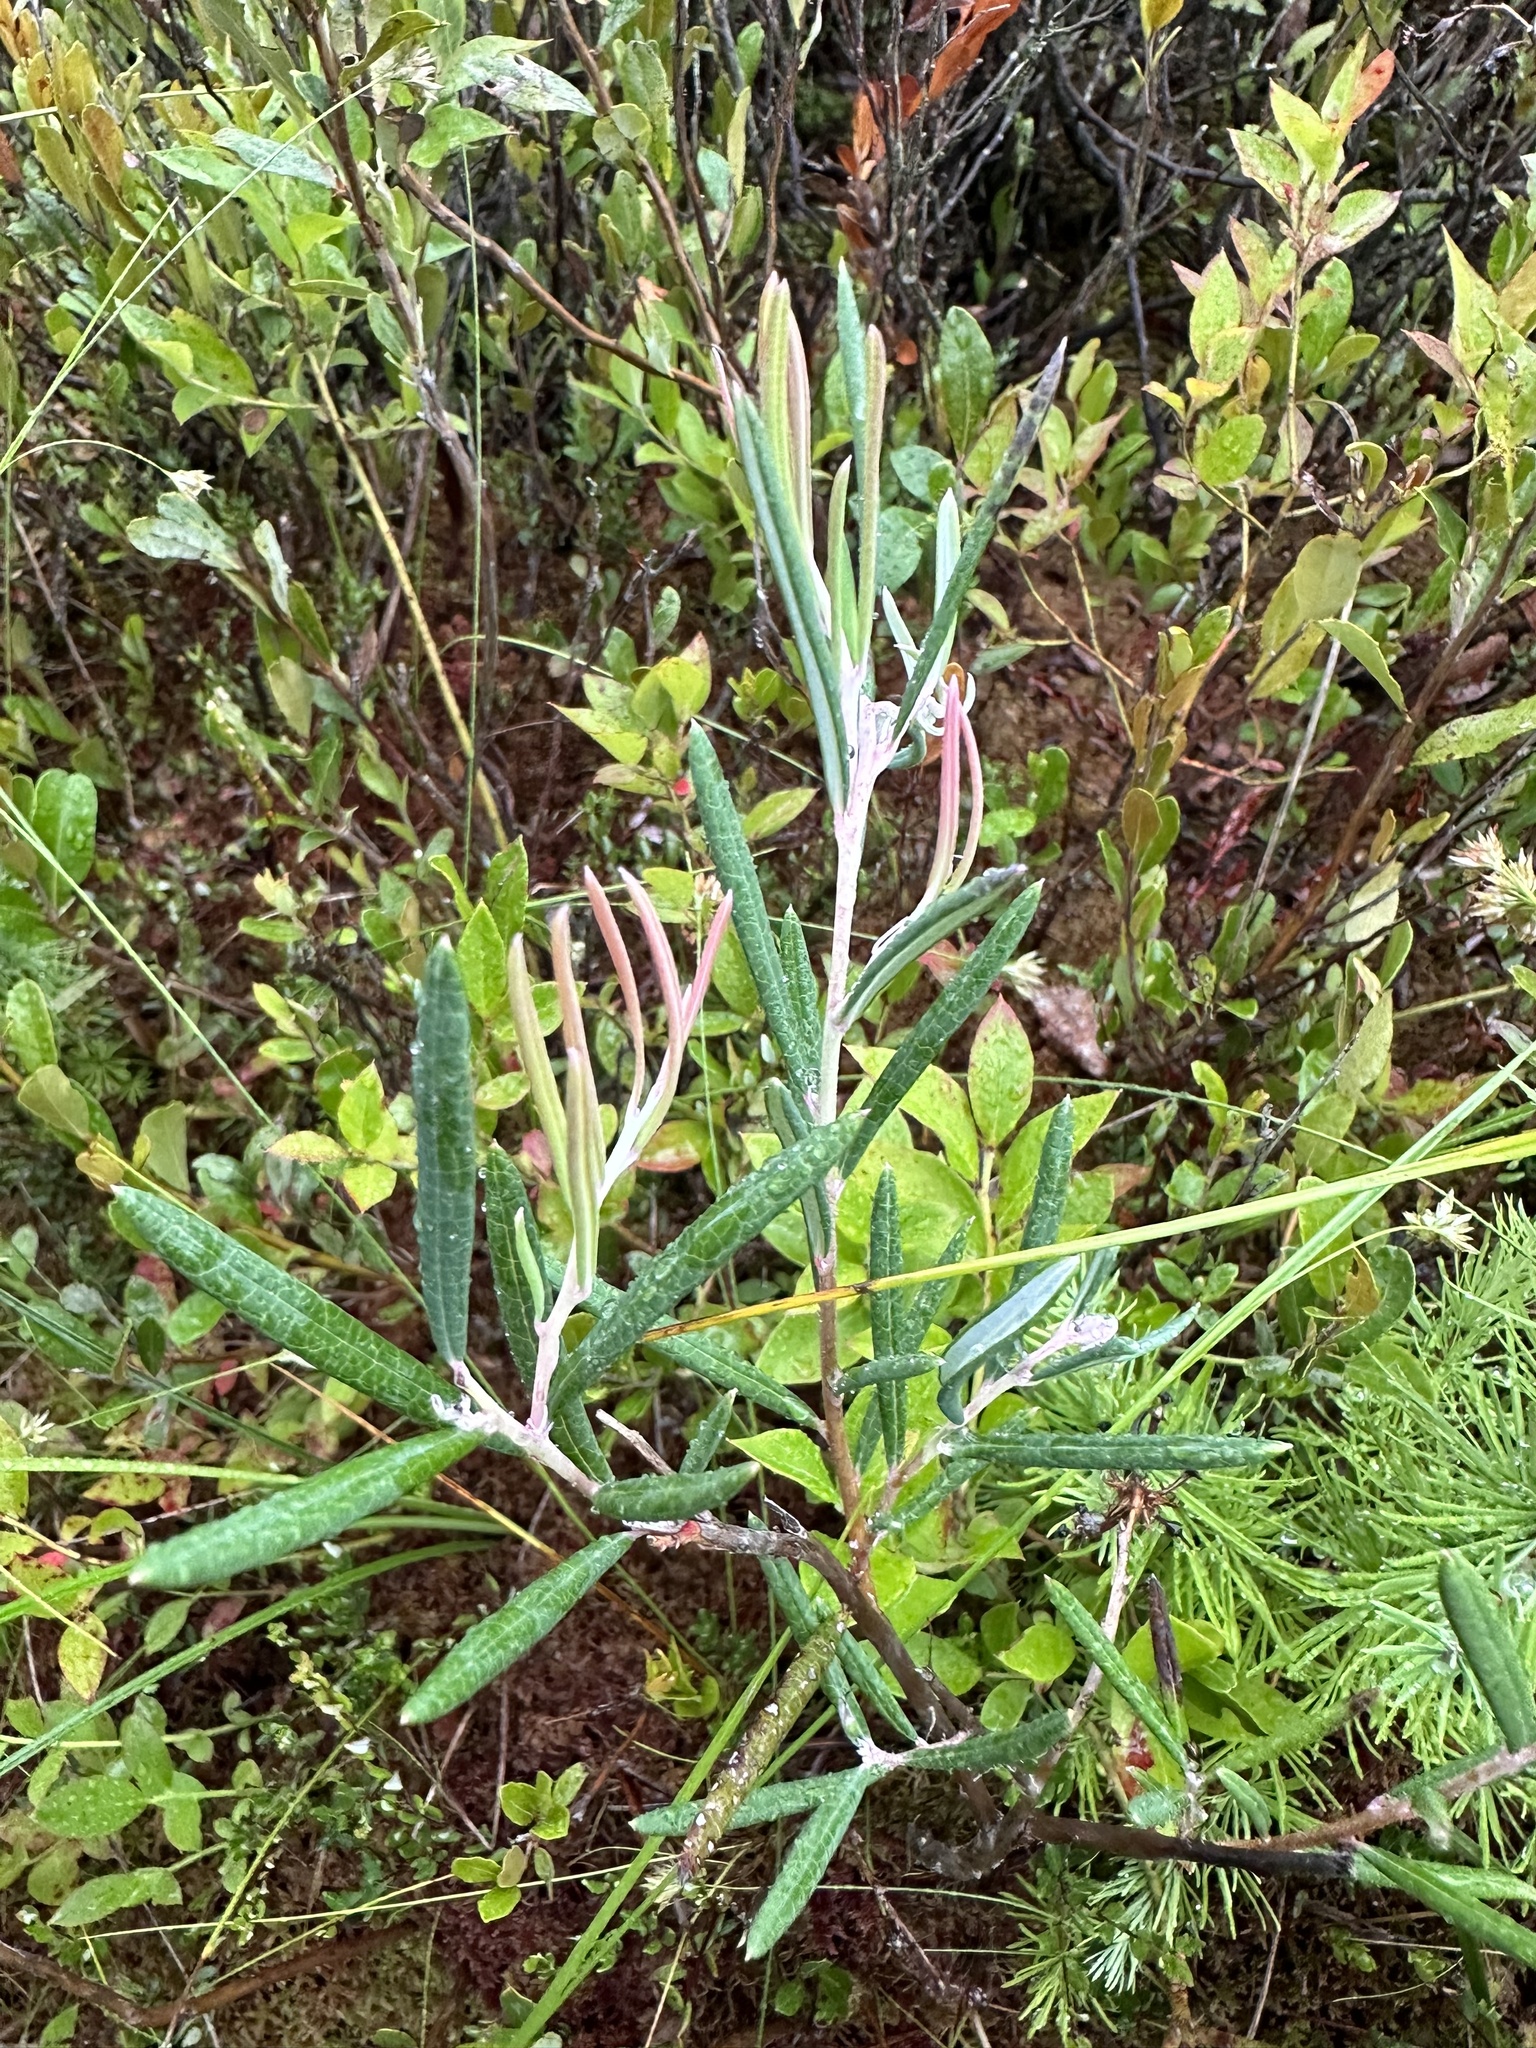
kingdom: Plantae
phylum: Tracheophyta
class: Magnoliopsida
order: Ericales
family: Ericaceae
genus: Andromeda
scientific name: Andromeda polifolia
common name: Bog-rosemary
